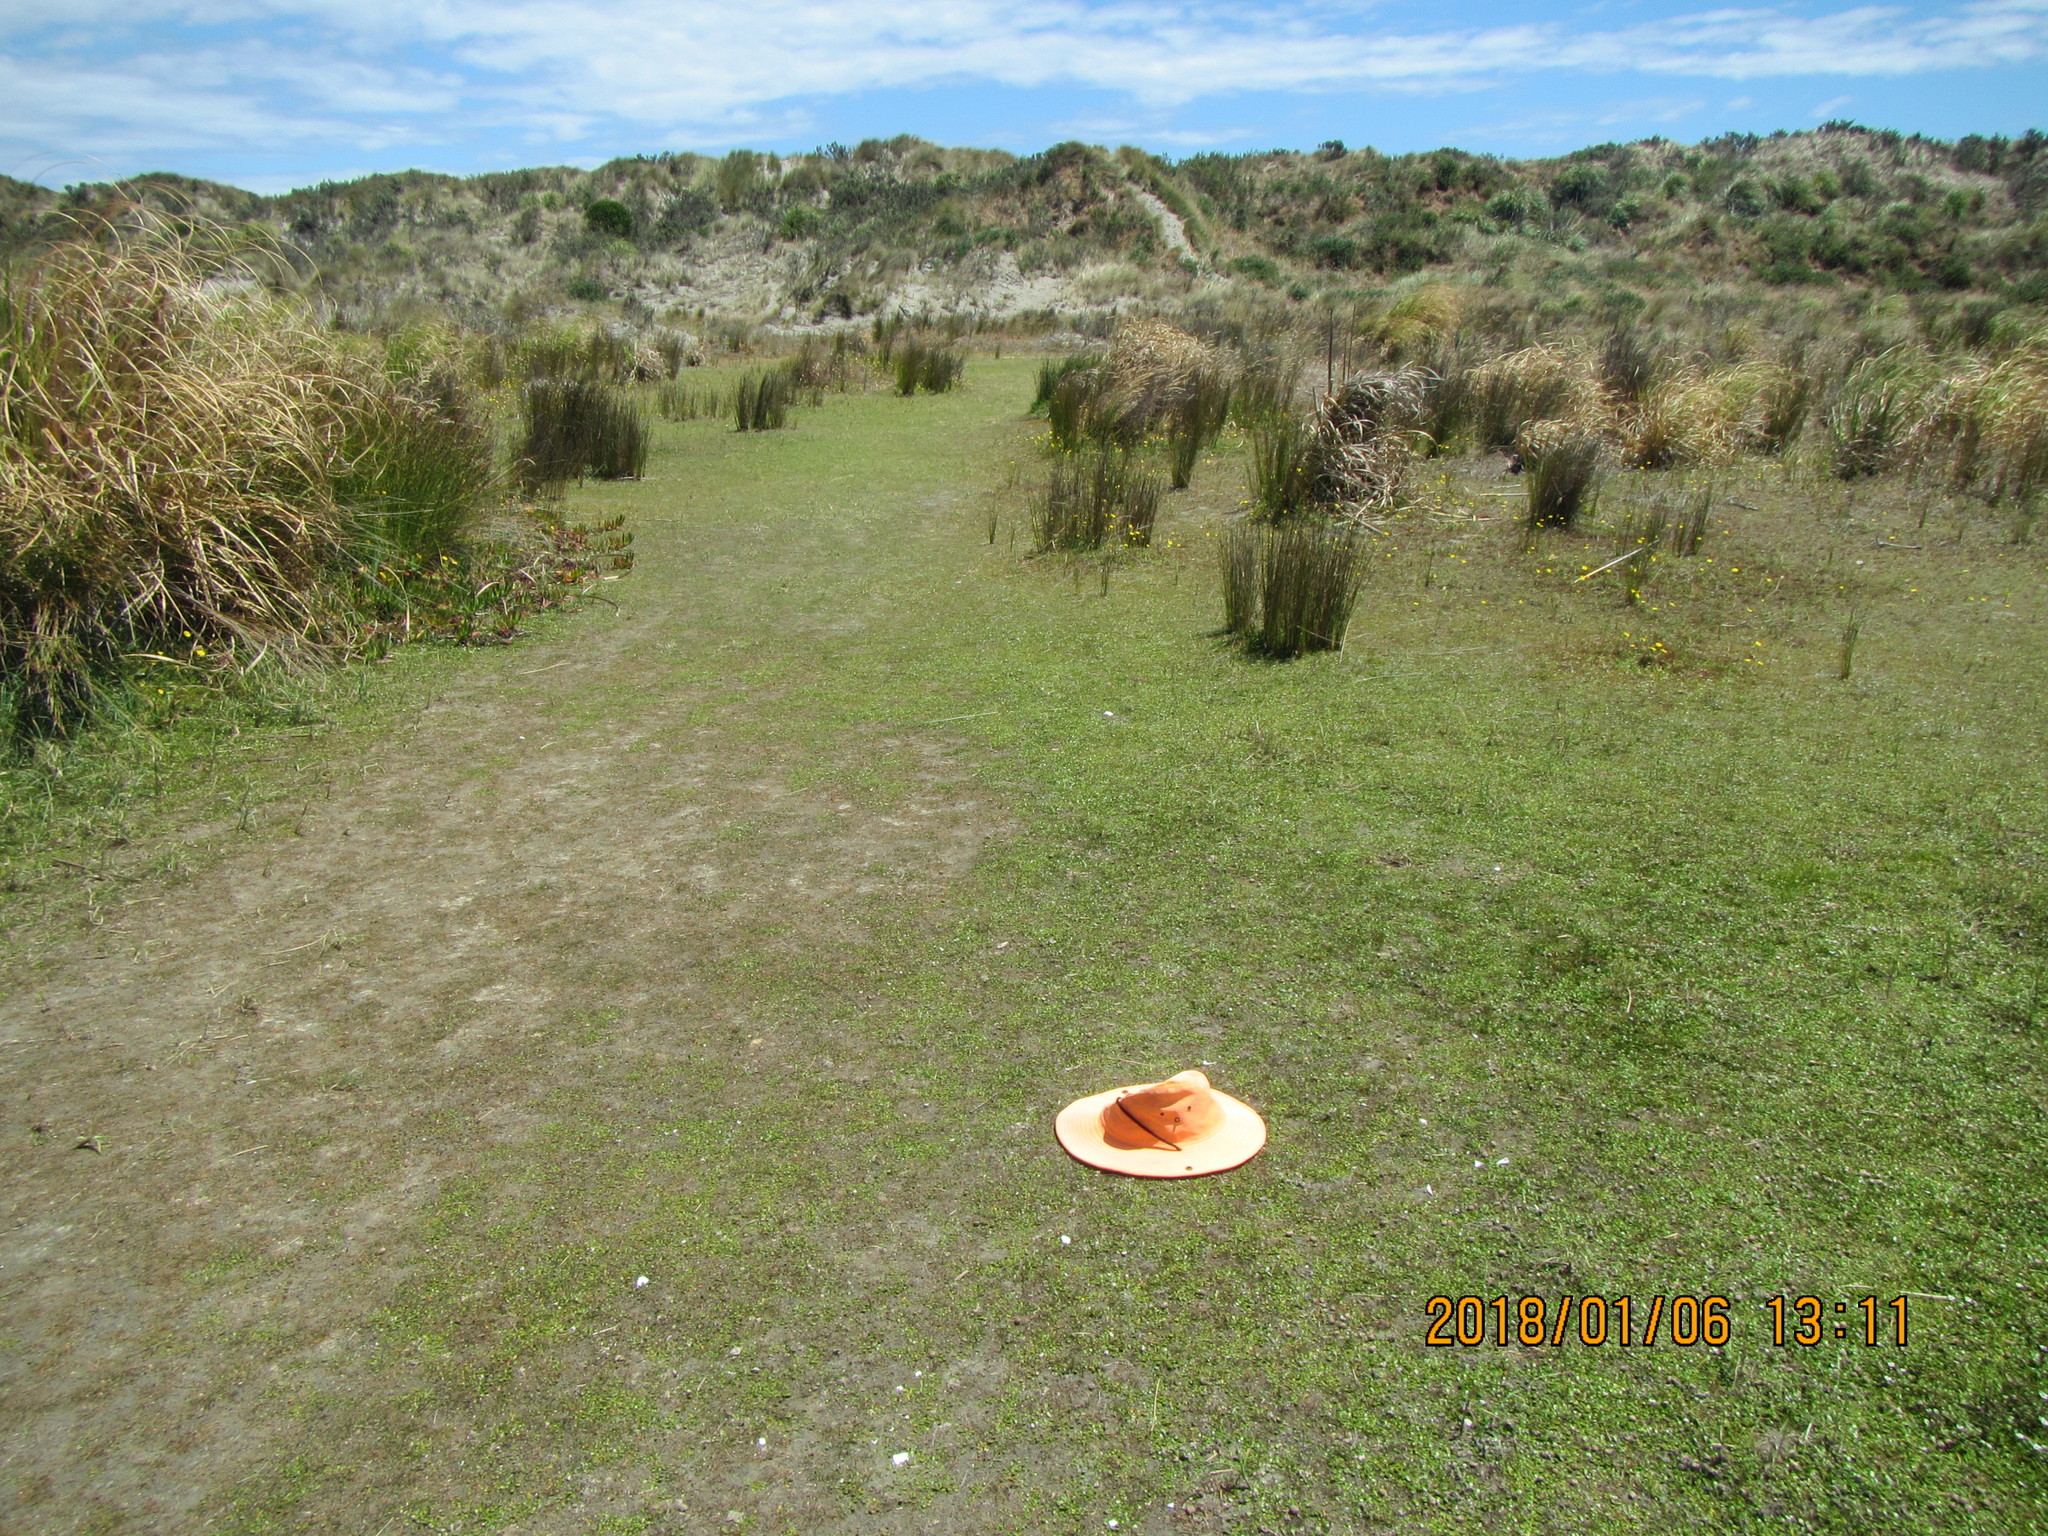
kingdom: Plantae
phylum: Tracheophyta
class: Magnoliopsida
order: Asterales
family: Goodeniaceae
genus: Goodenia
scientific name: Goodenia radicans
